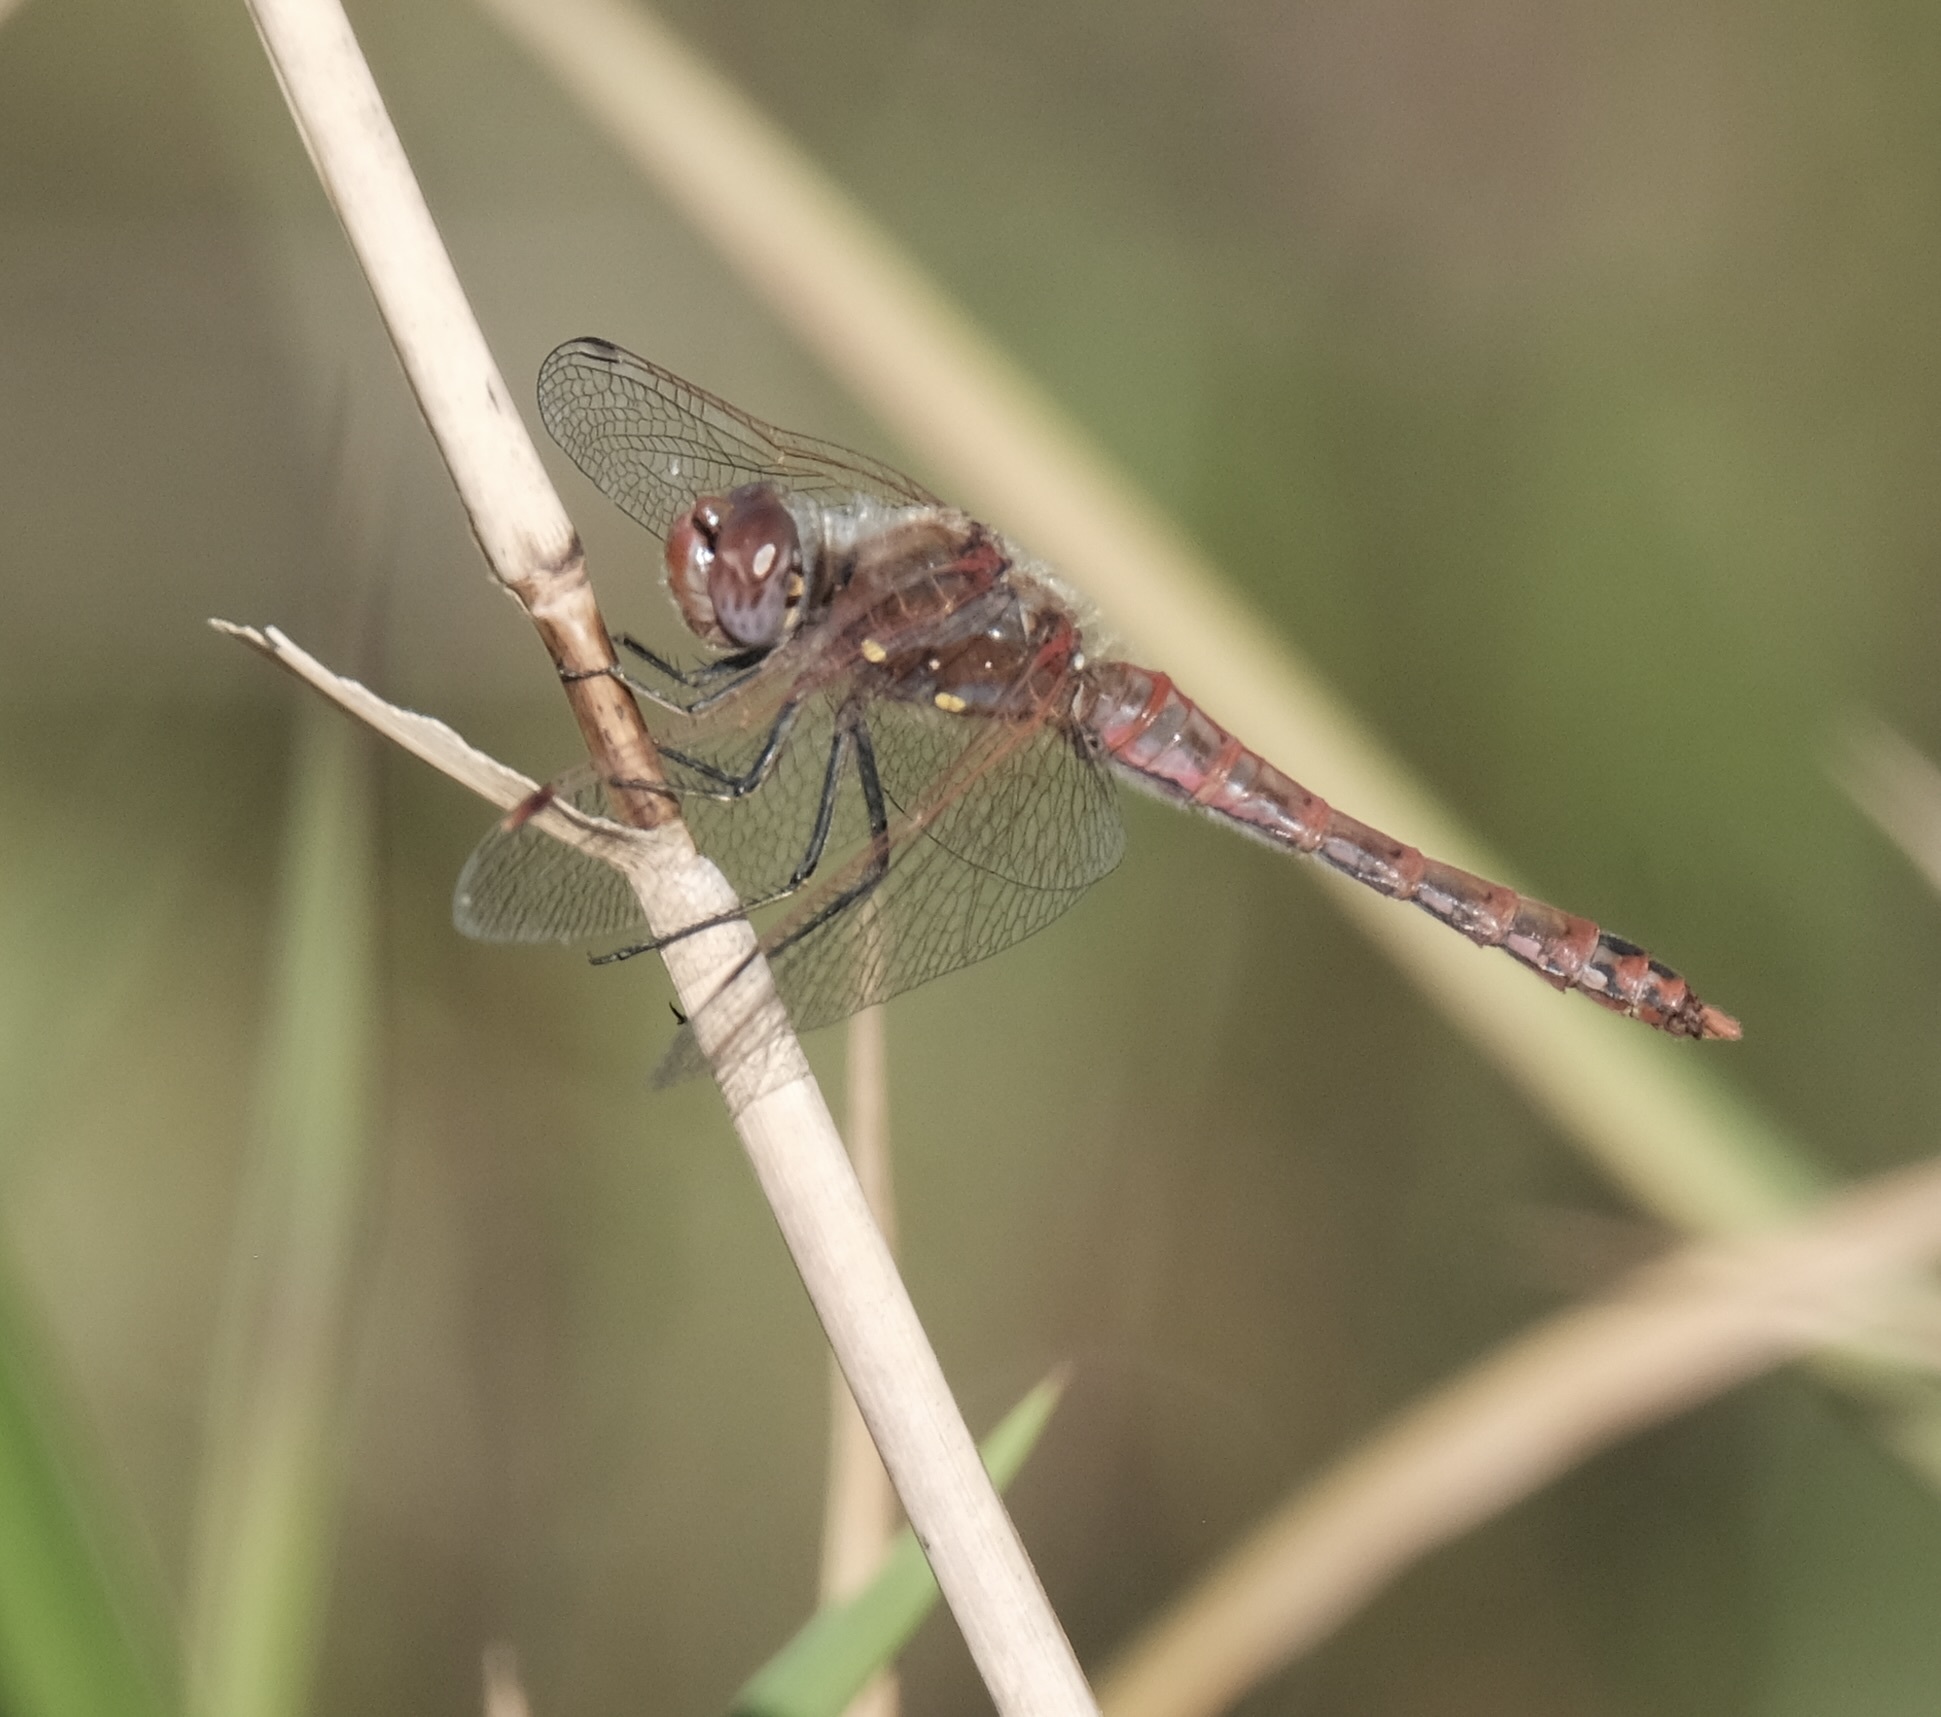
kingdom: Animalia
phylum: Arthropoda
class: Insecta
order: Odonata
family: Libellulidae
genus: Sympetrum
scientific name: Sympetrum corruptum
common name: Variegated meadowhawk
